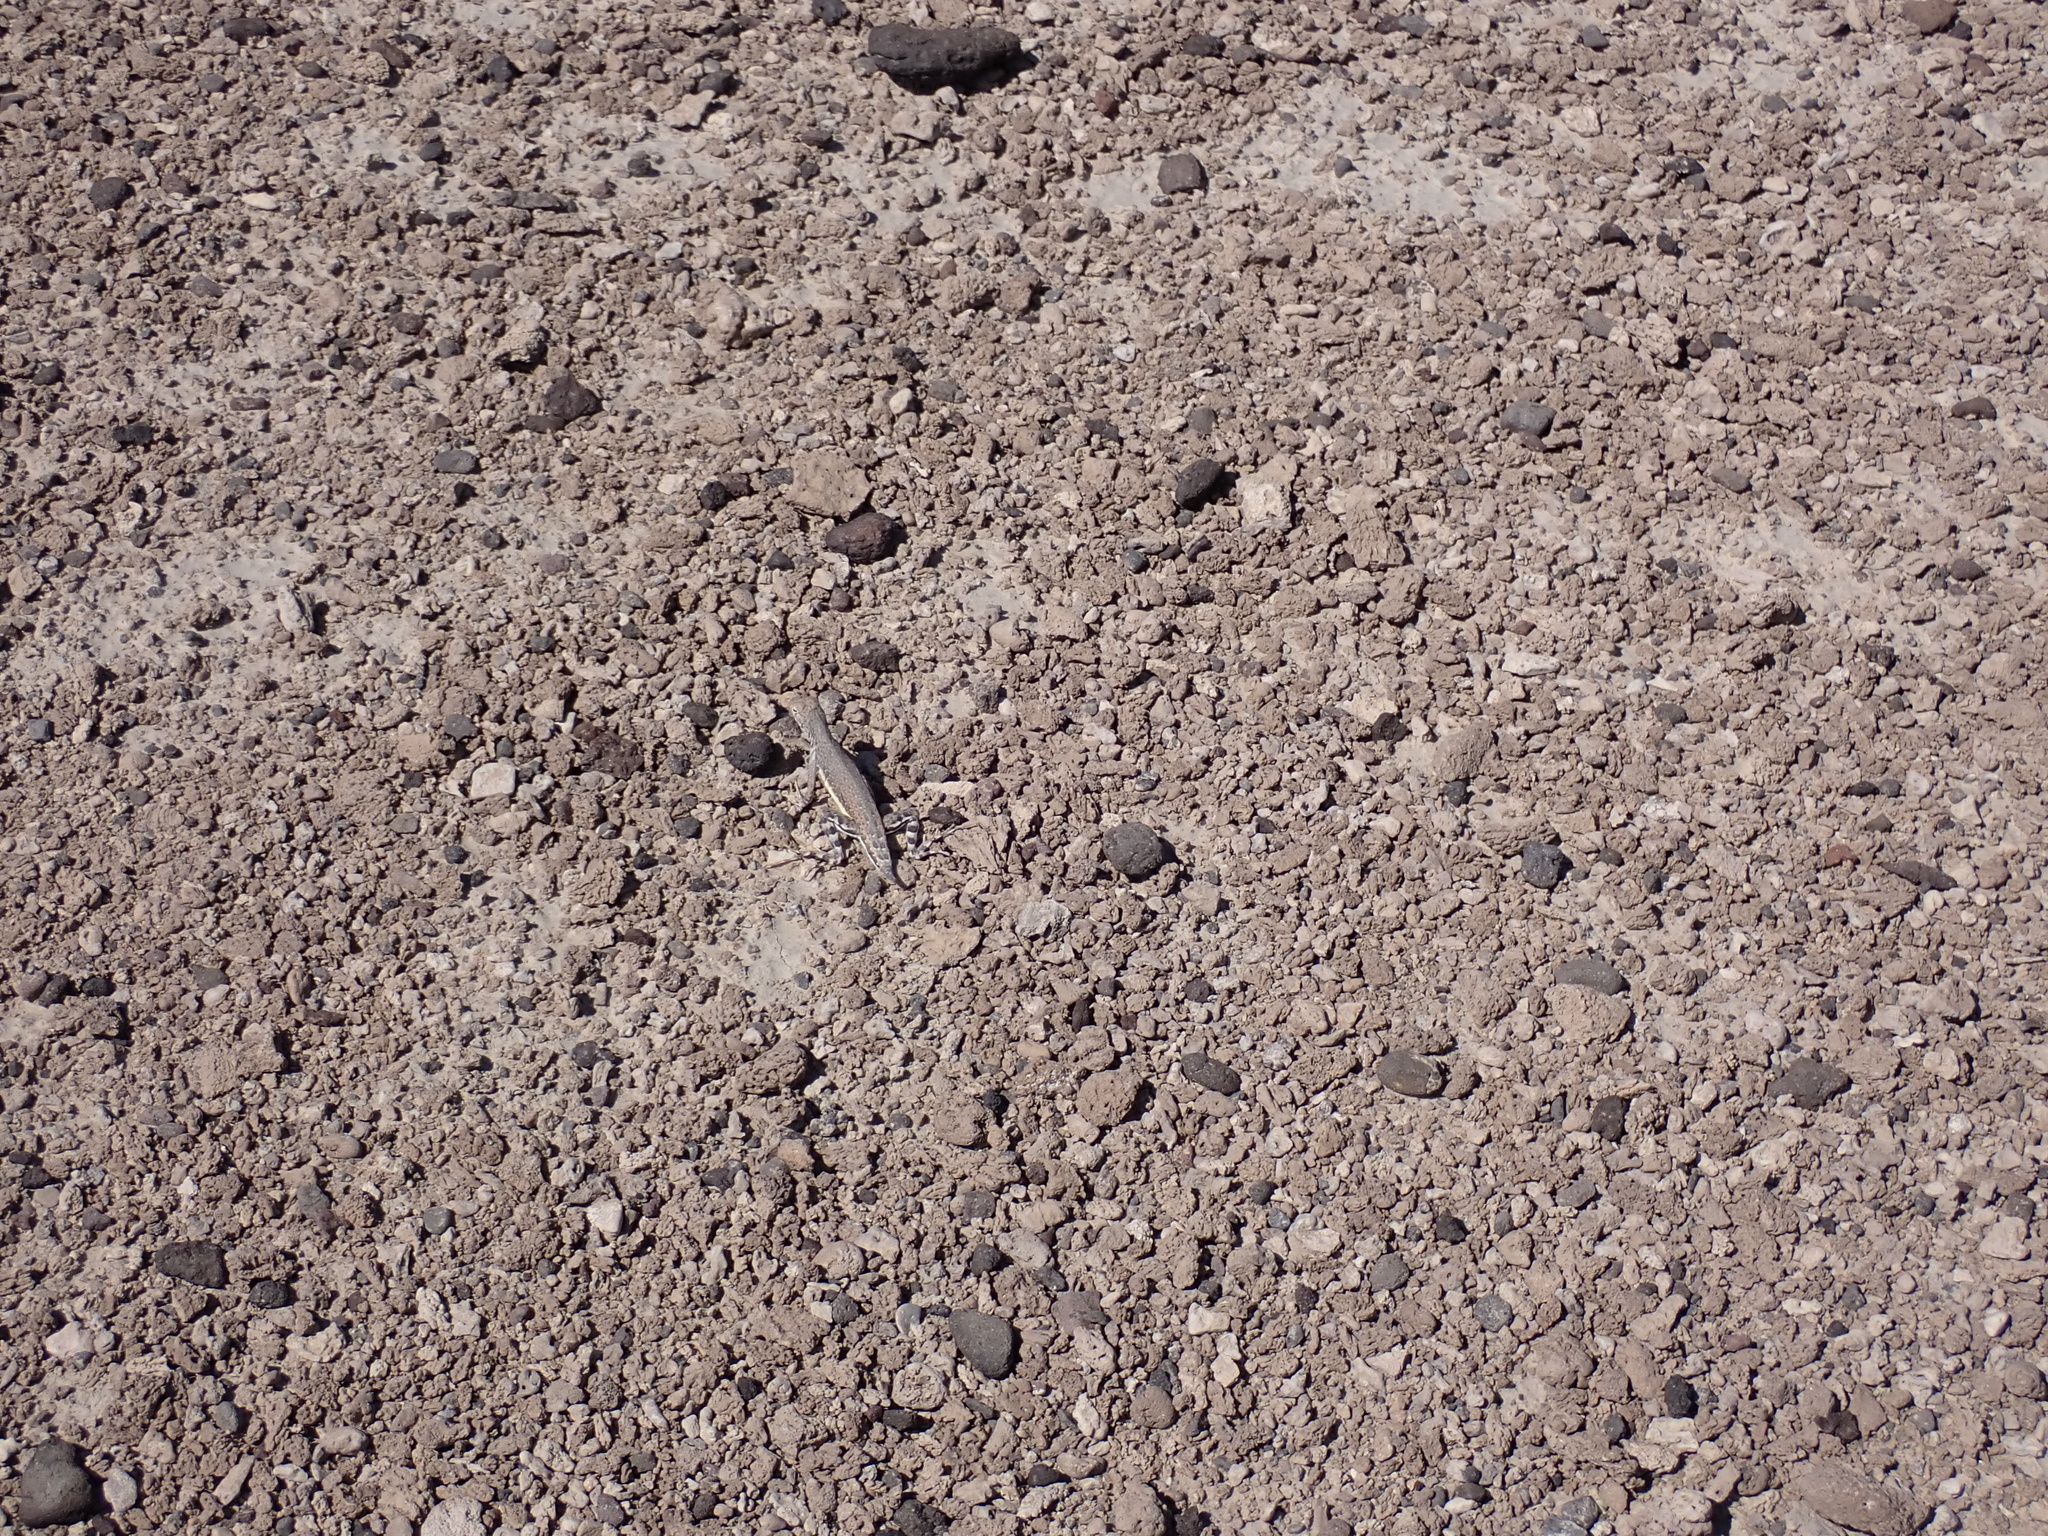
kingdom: Animalia
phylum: Chordata
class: Squamata
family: Phrynosomatidae
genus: Callisaurus
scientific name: Callisaurus draconoides
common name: Zebra-tailed lizard
